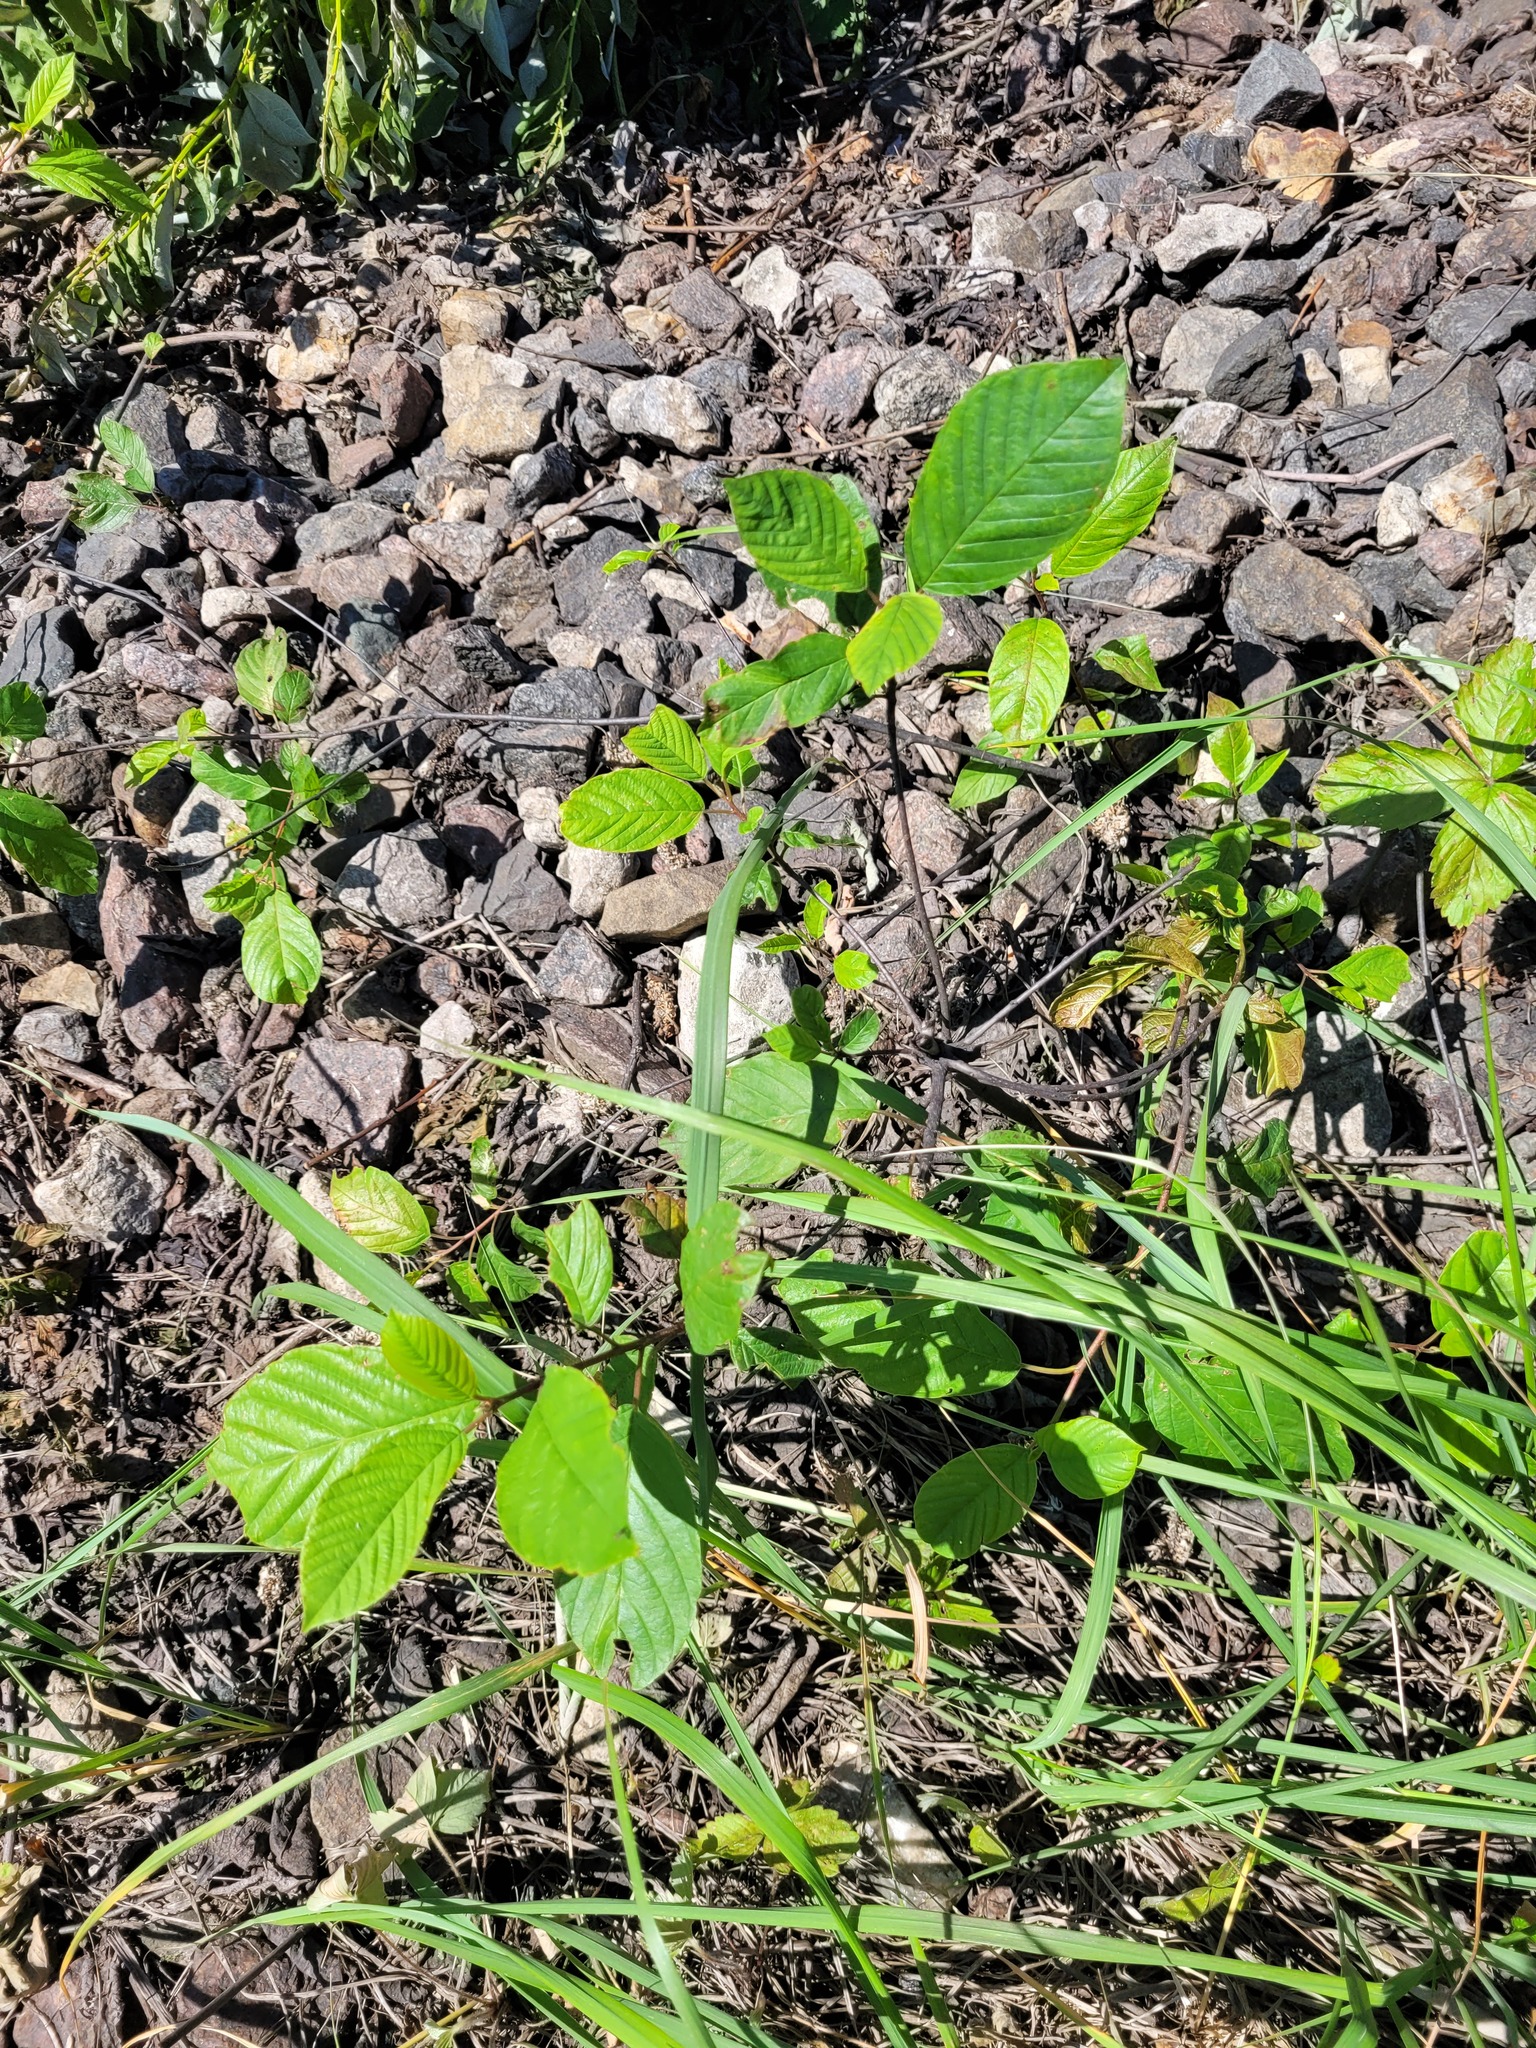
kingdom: Plantae
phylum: Tracheophyta
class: Magnoliopsida
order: Rosales
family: Rhamnaceae
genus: Frangula
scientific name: Frangula alnus
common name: Alder buckthorn
